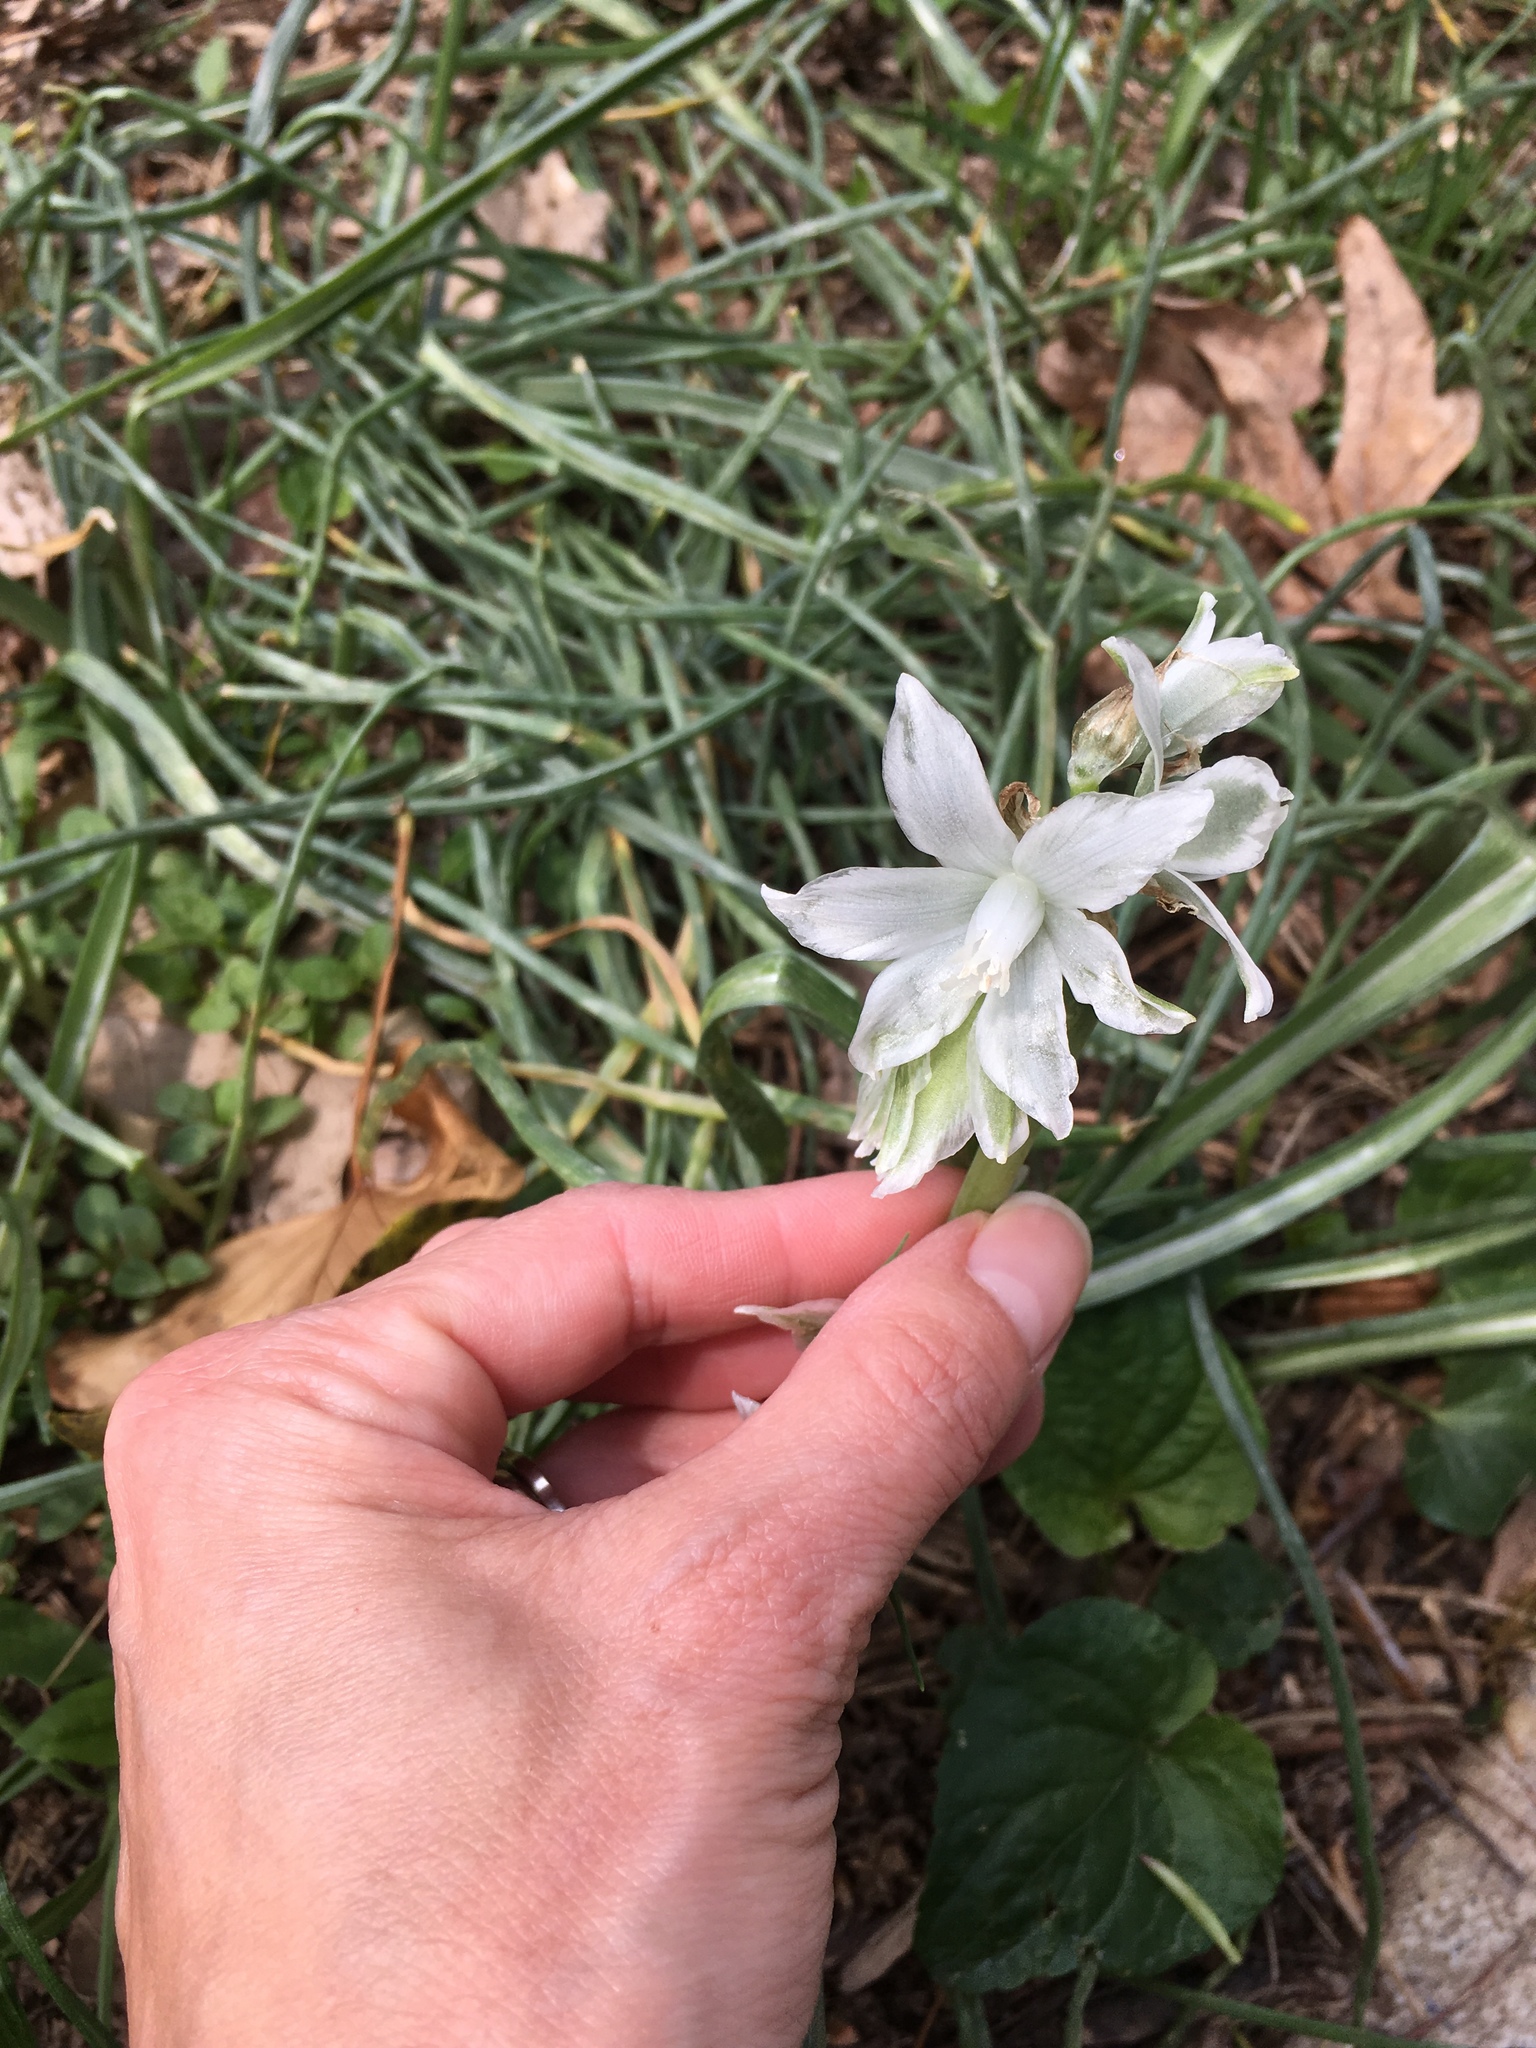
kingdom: Plantae
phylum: Tracheophyta
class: Liliopsida
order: Asparagales
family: Asparagaceae
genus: Ornithogalum
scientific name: Ornithogalum nutans
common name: Drooping star-of-bethlehem
